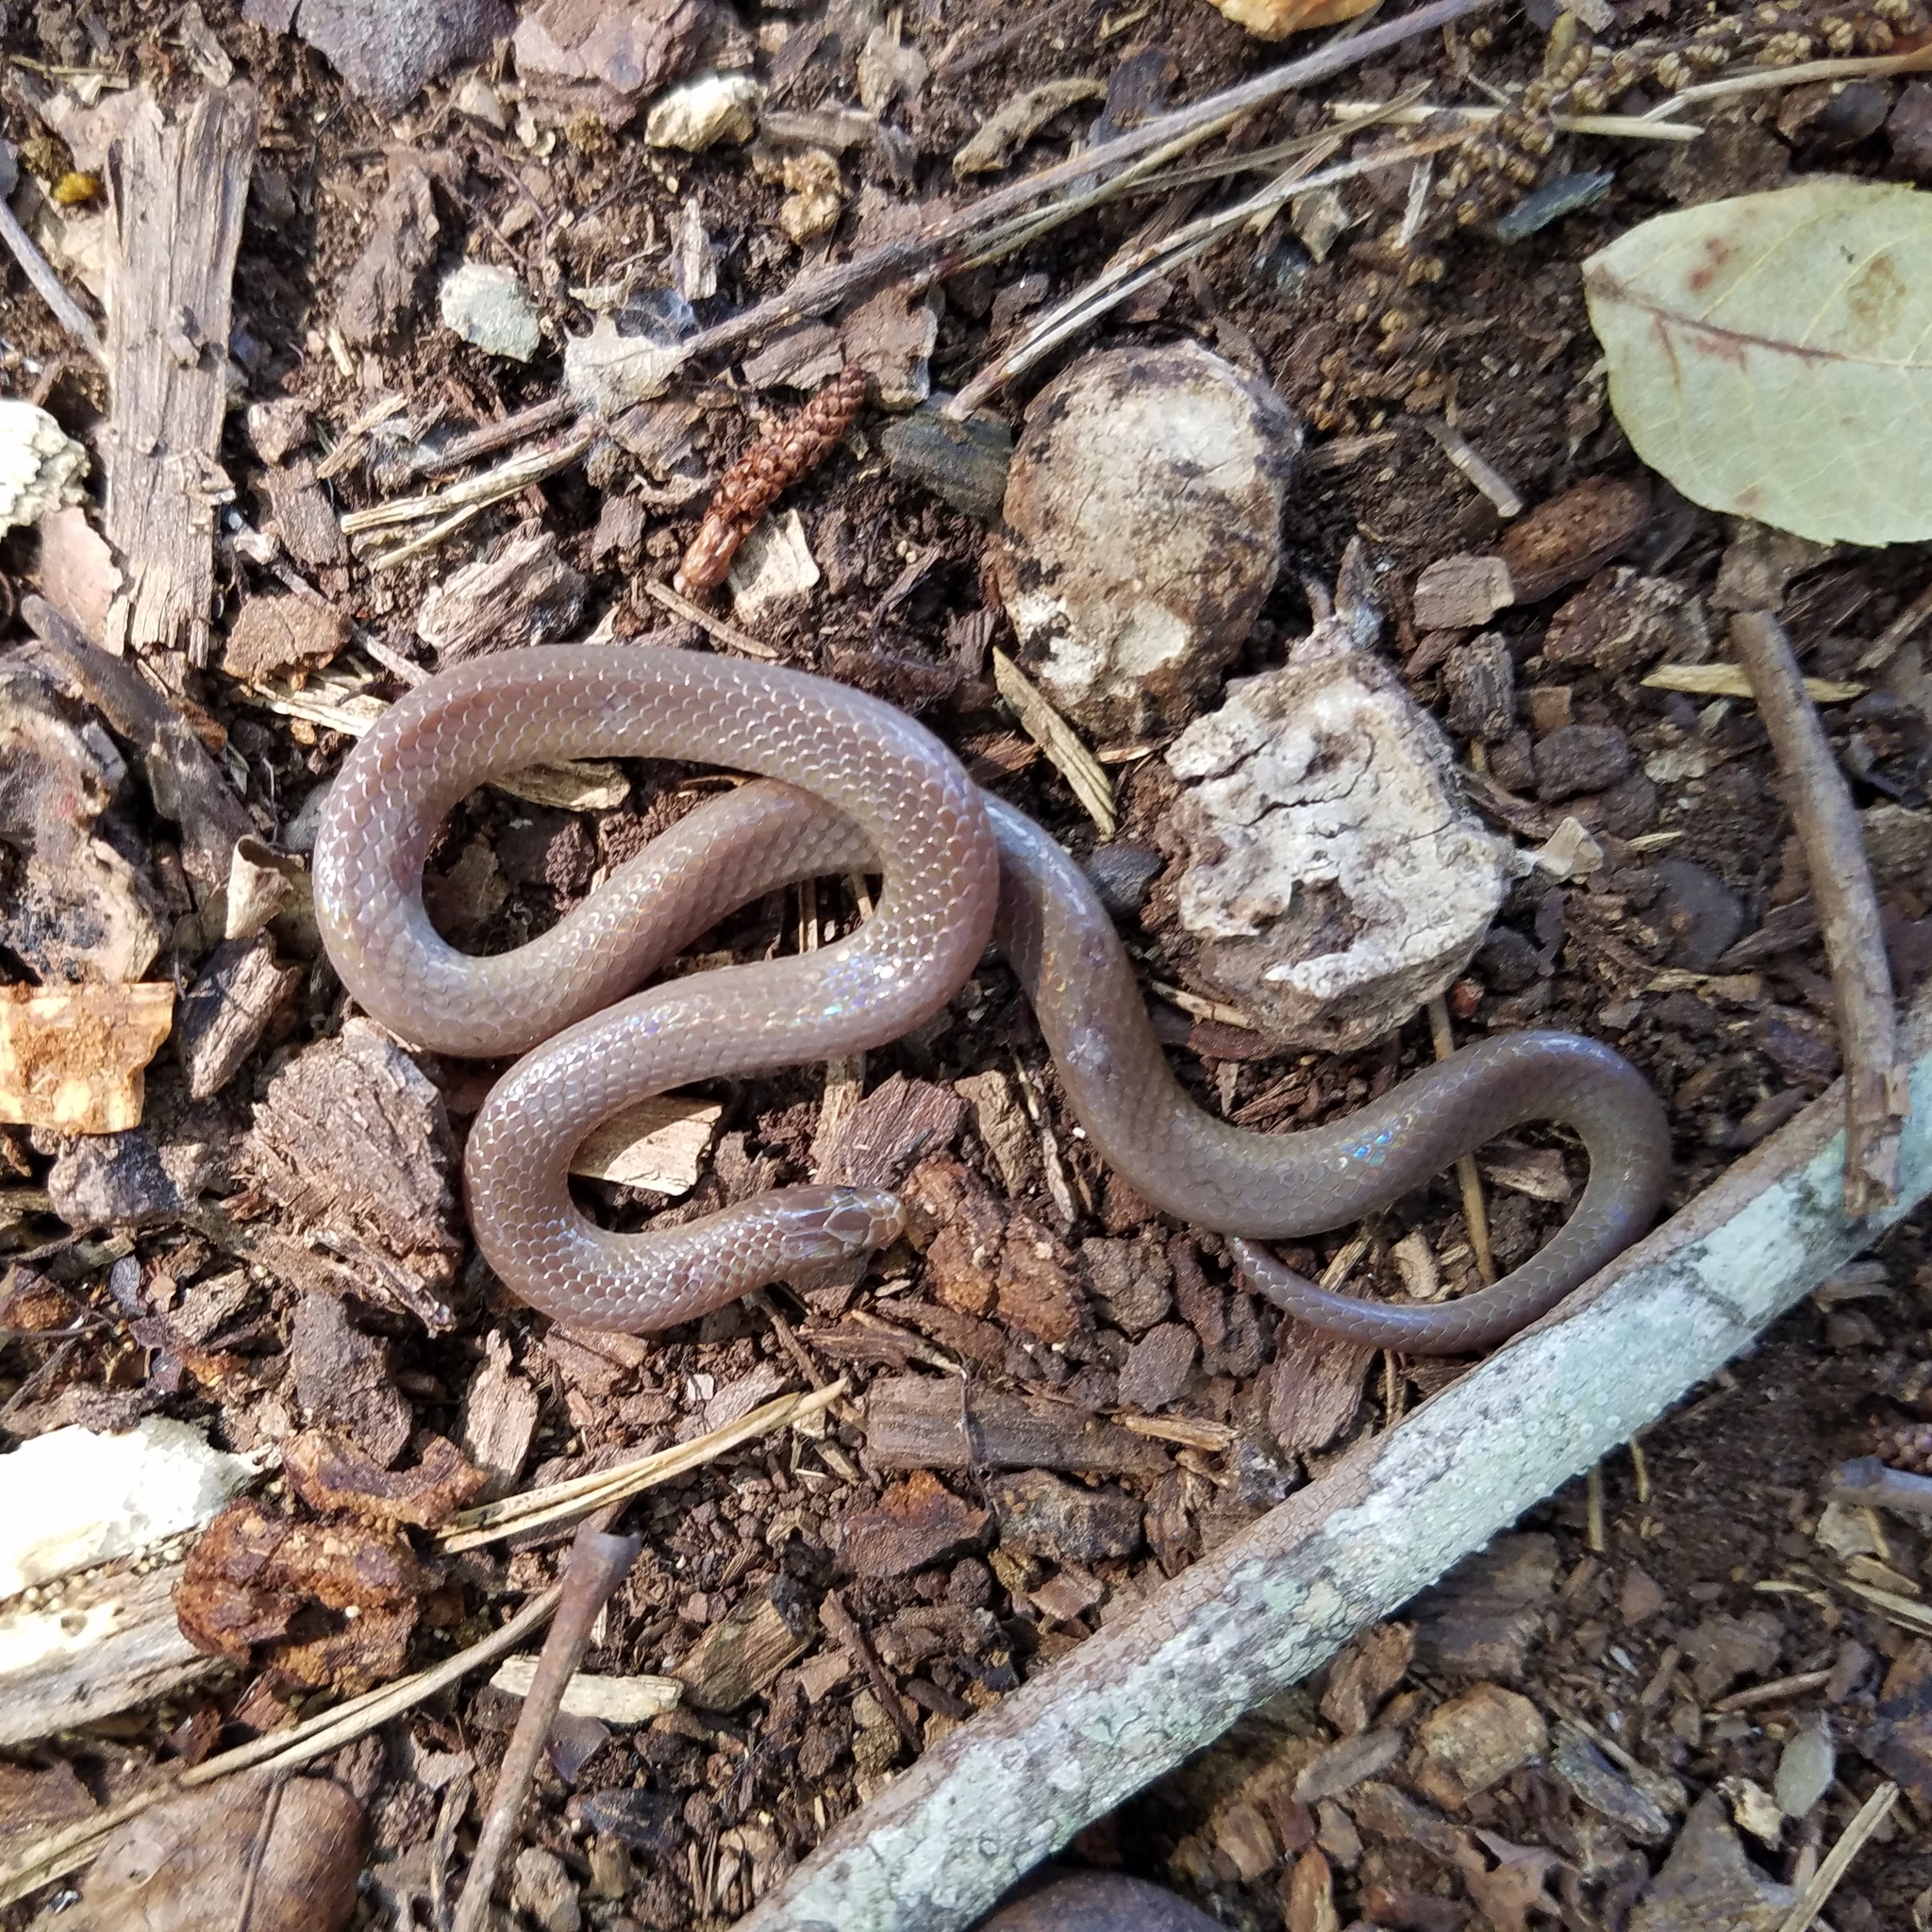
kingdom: Animalia
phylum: Chordata
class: Squamata
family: Colubridae
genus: Carphophis
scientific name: Carphophis amoenus
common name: Eastern worm snake
